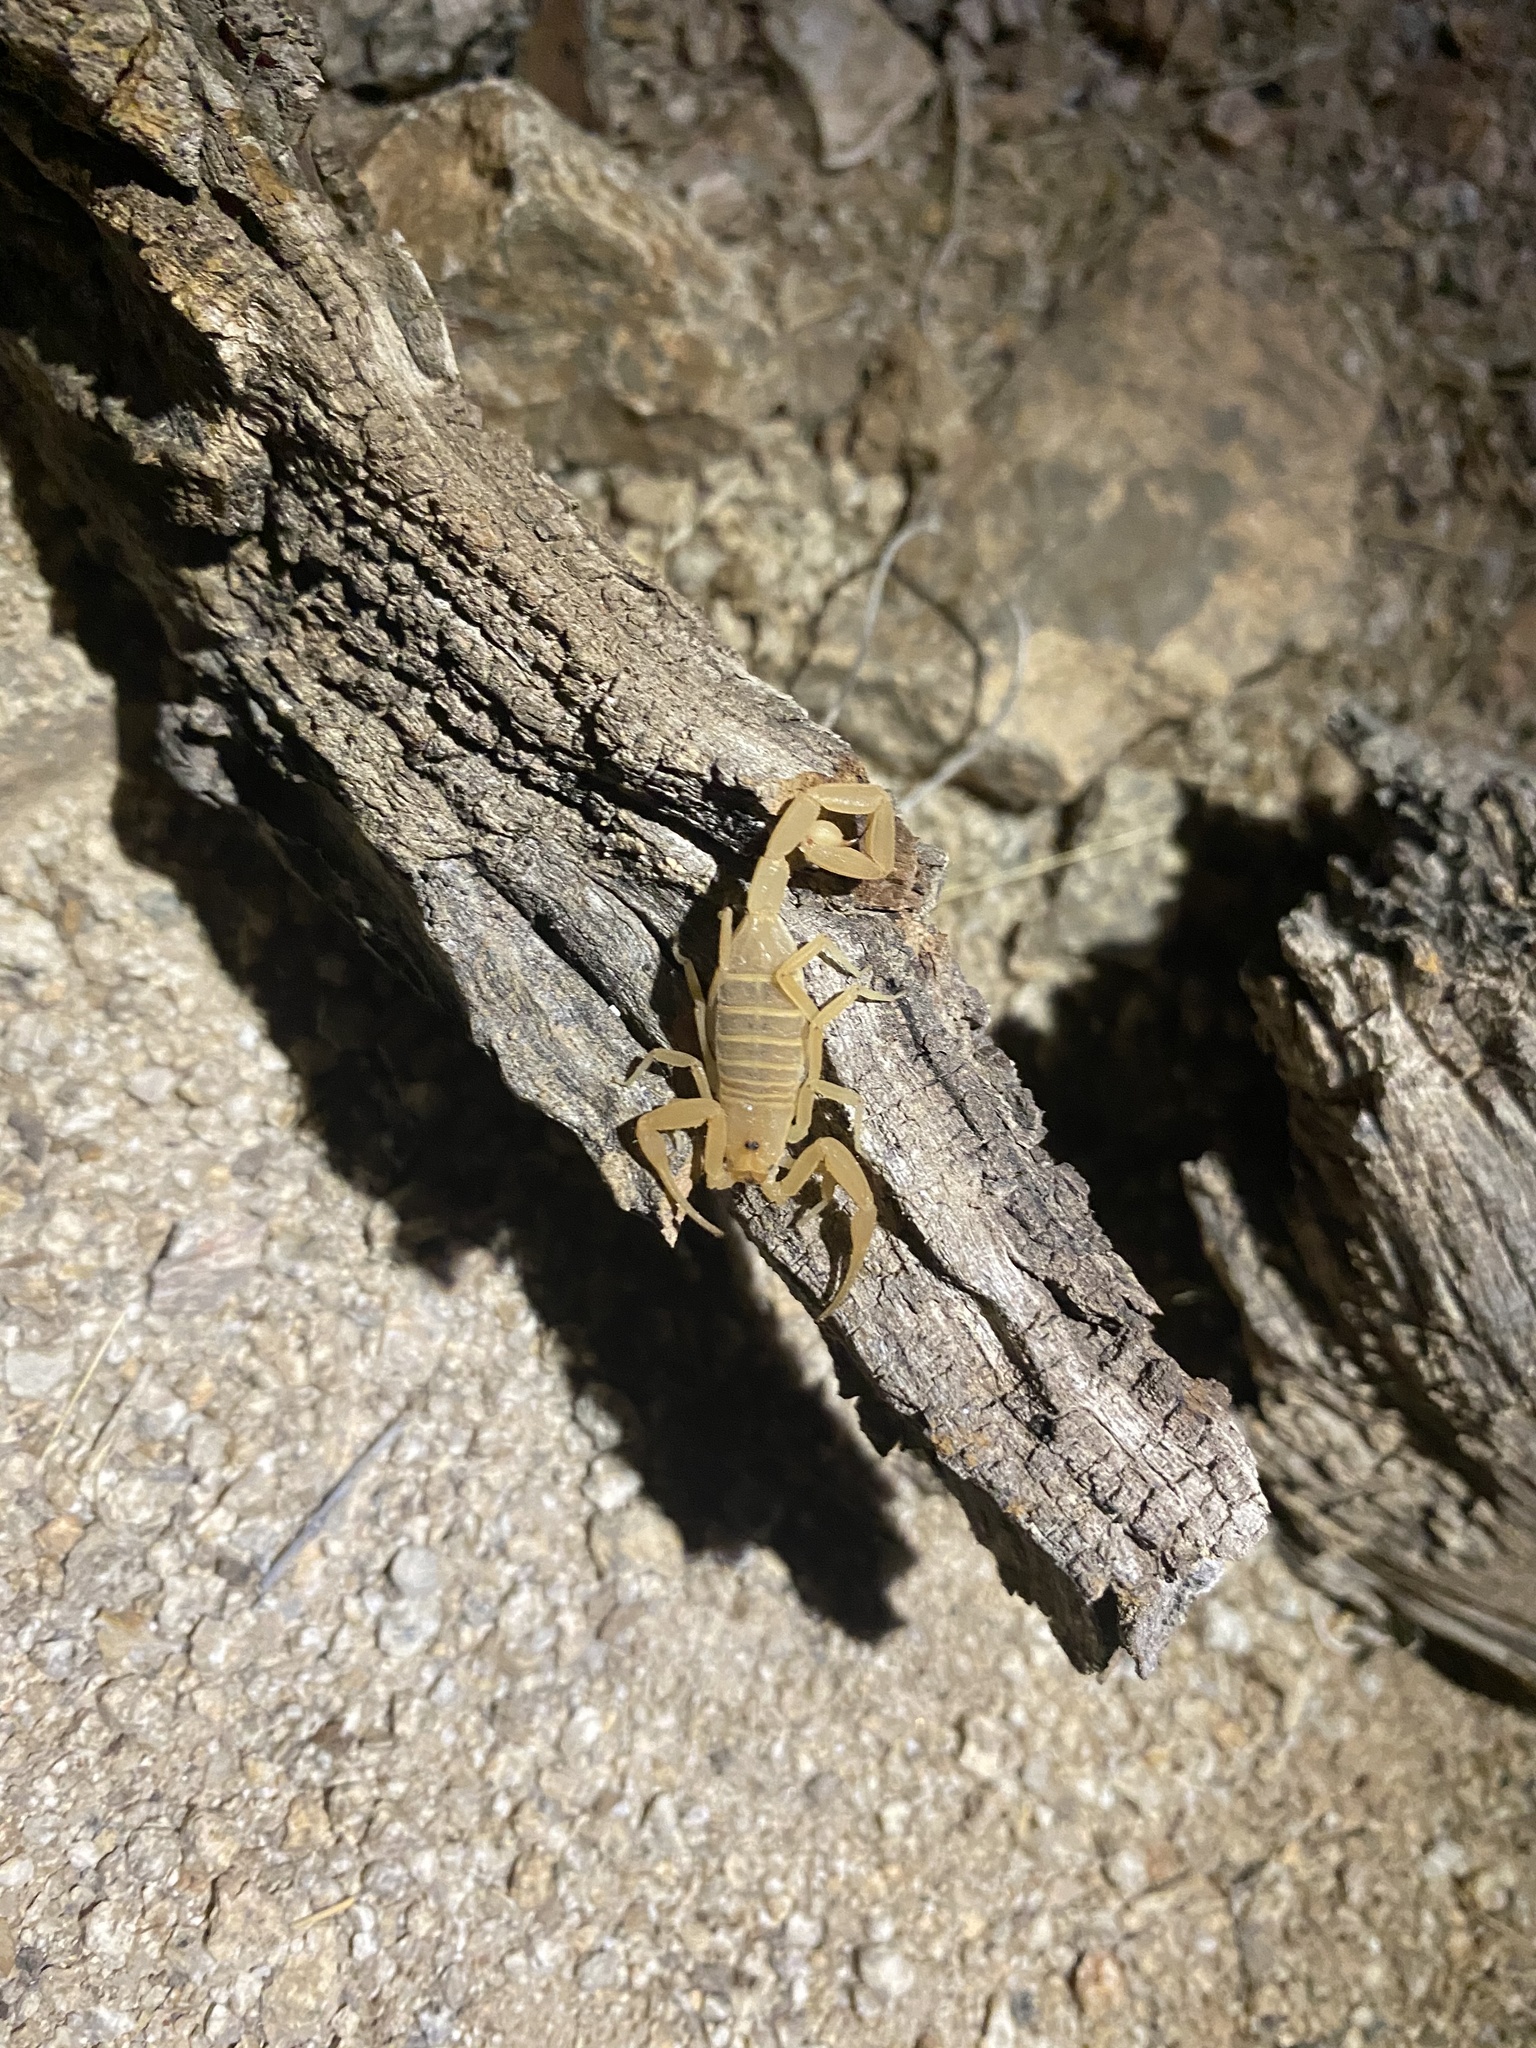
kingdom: Animalia
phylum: Arthropoda
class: Arachnida
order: Scorpiones
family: Buthidae
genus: Centruroides
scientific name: Centruroides sculpturatus
